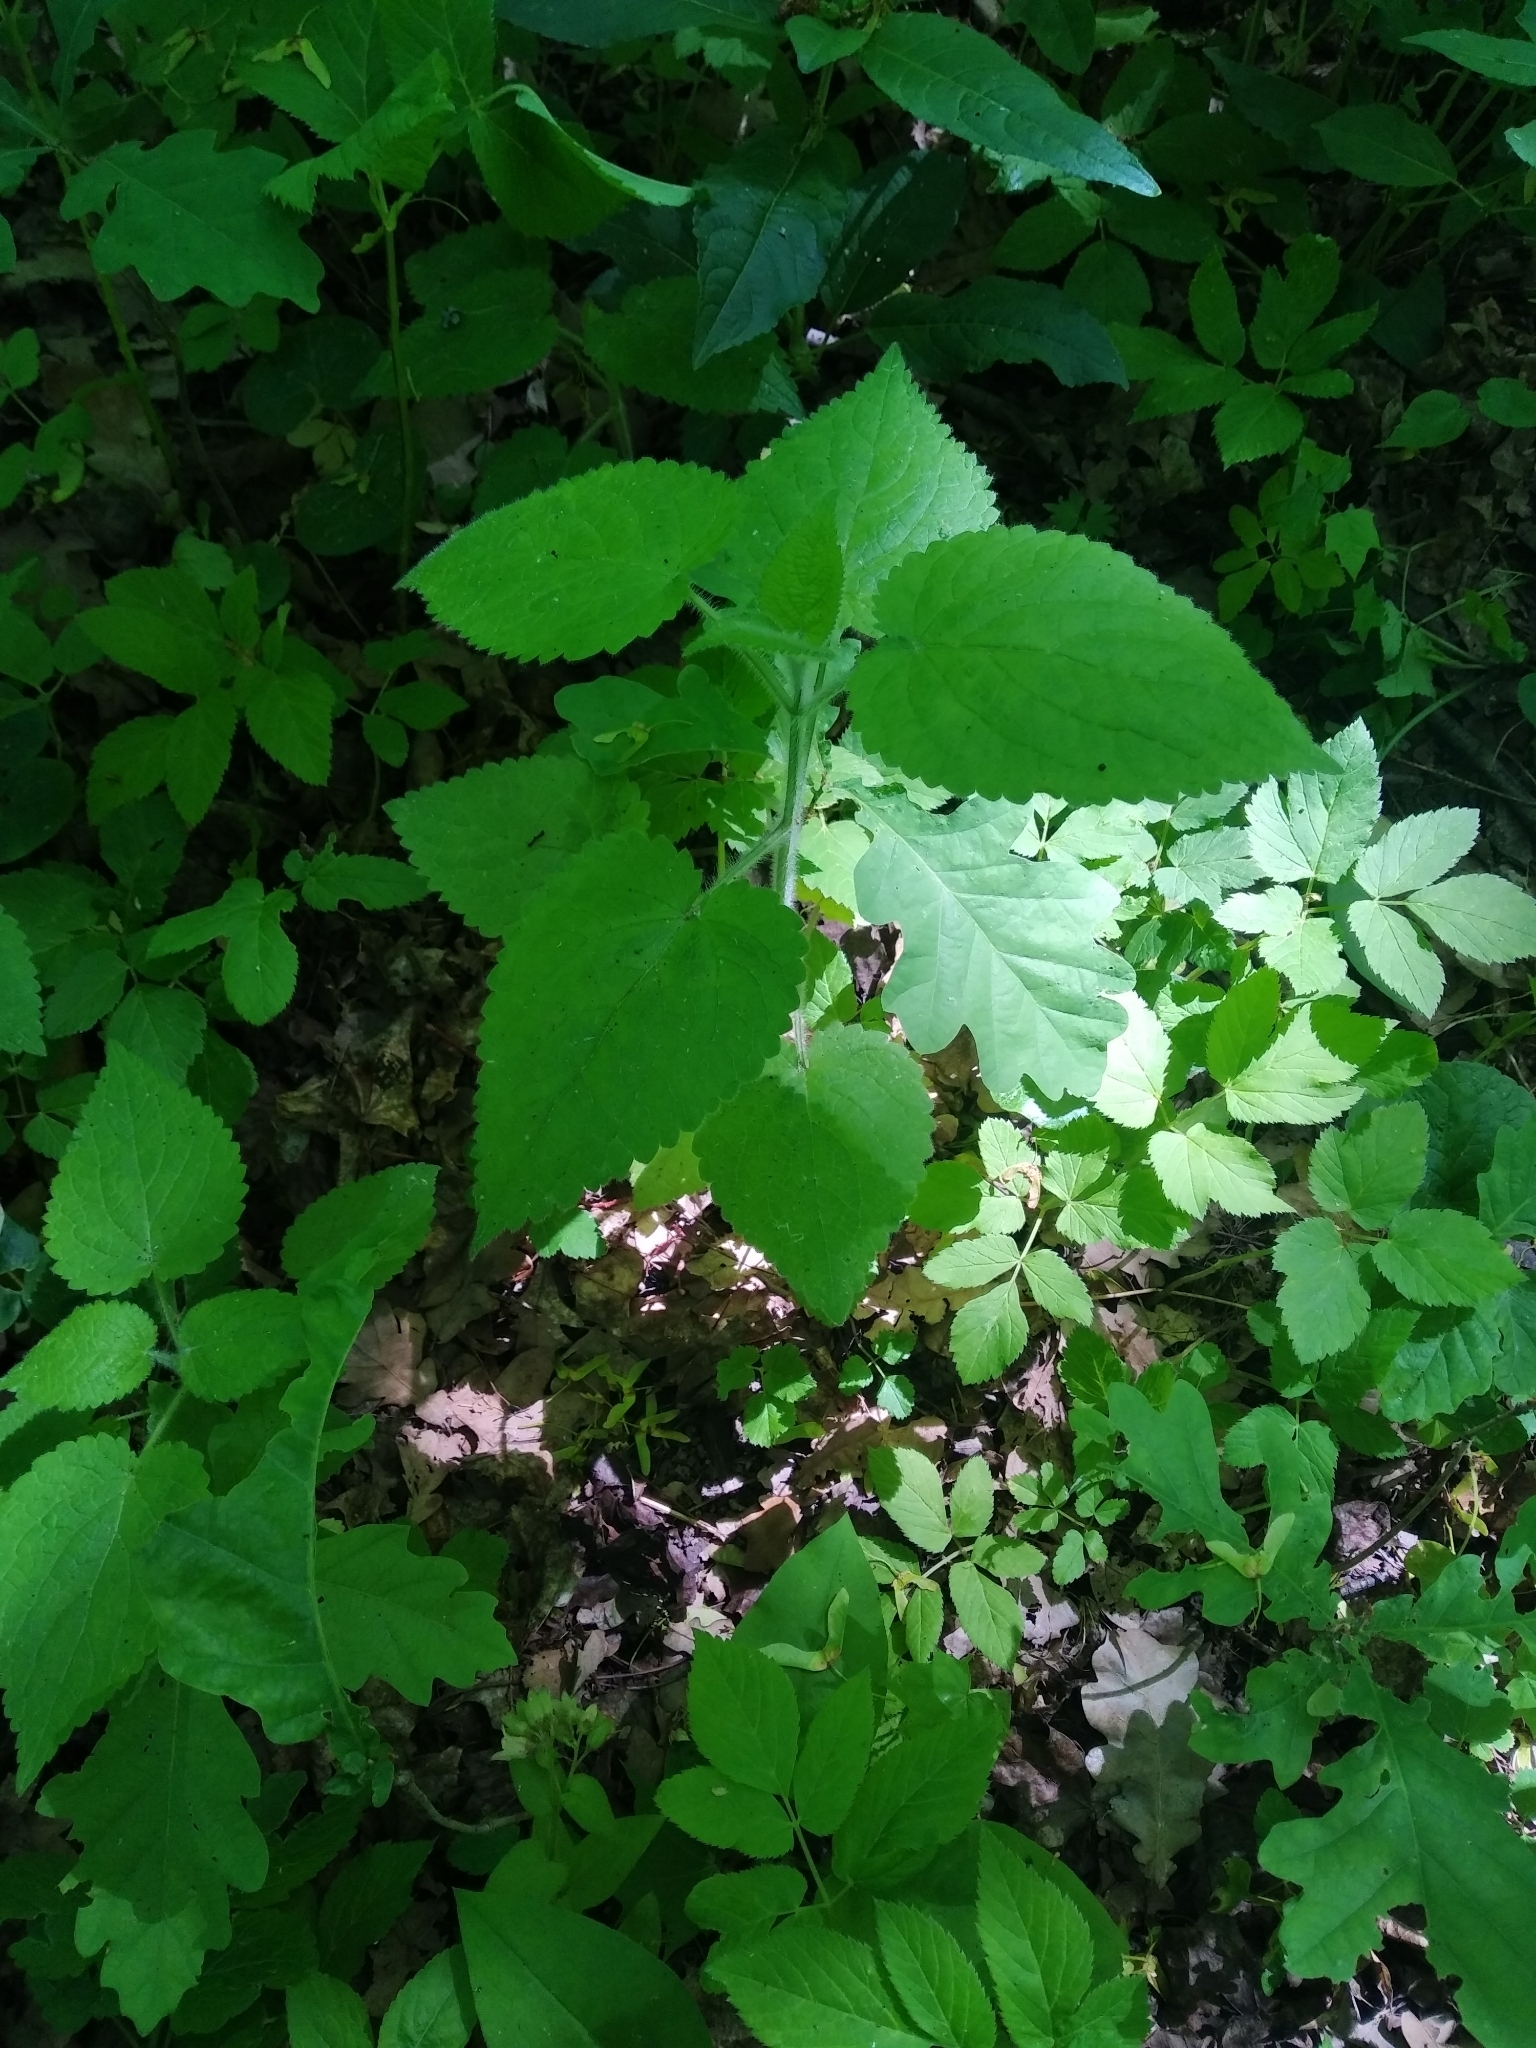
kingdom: Plantae
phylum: Tracheophyta
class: Magnoliopsida
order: Lamiales
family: Lamiaceae
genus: Stachys
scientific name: Stachys sylvatica
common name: Hedge woundwort
